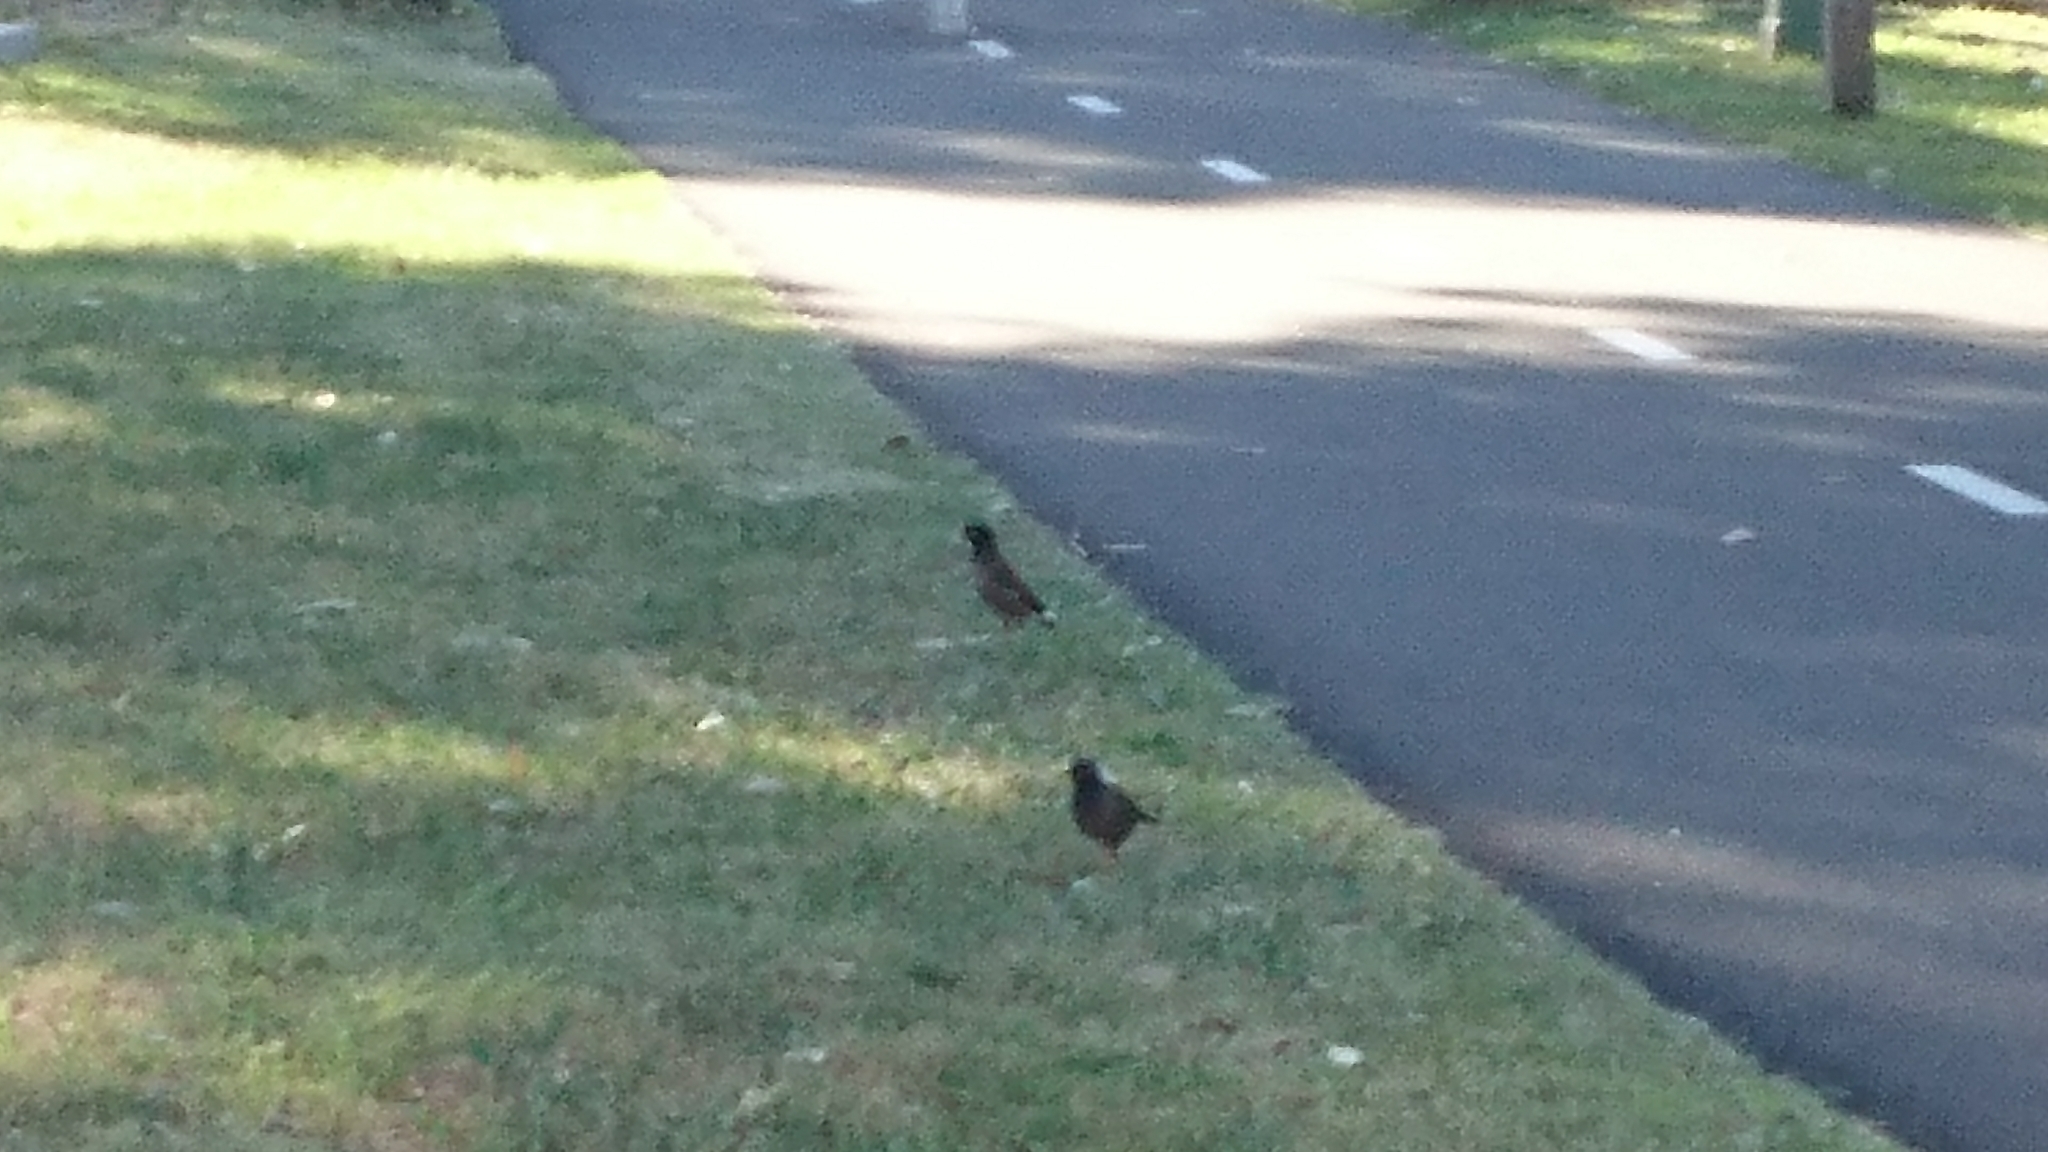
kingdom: Animalia
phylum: Chordata
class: Aves
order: Passeriformes
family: Sturnidae
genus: Acridotheres
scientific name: Acridotheres tristis
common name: Common myna
